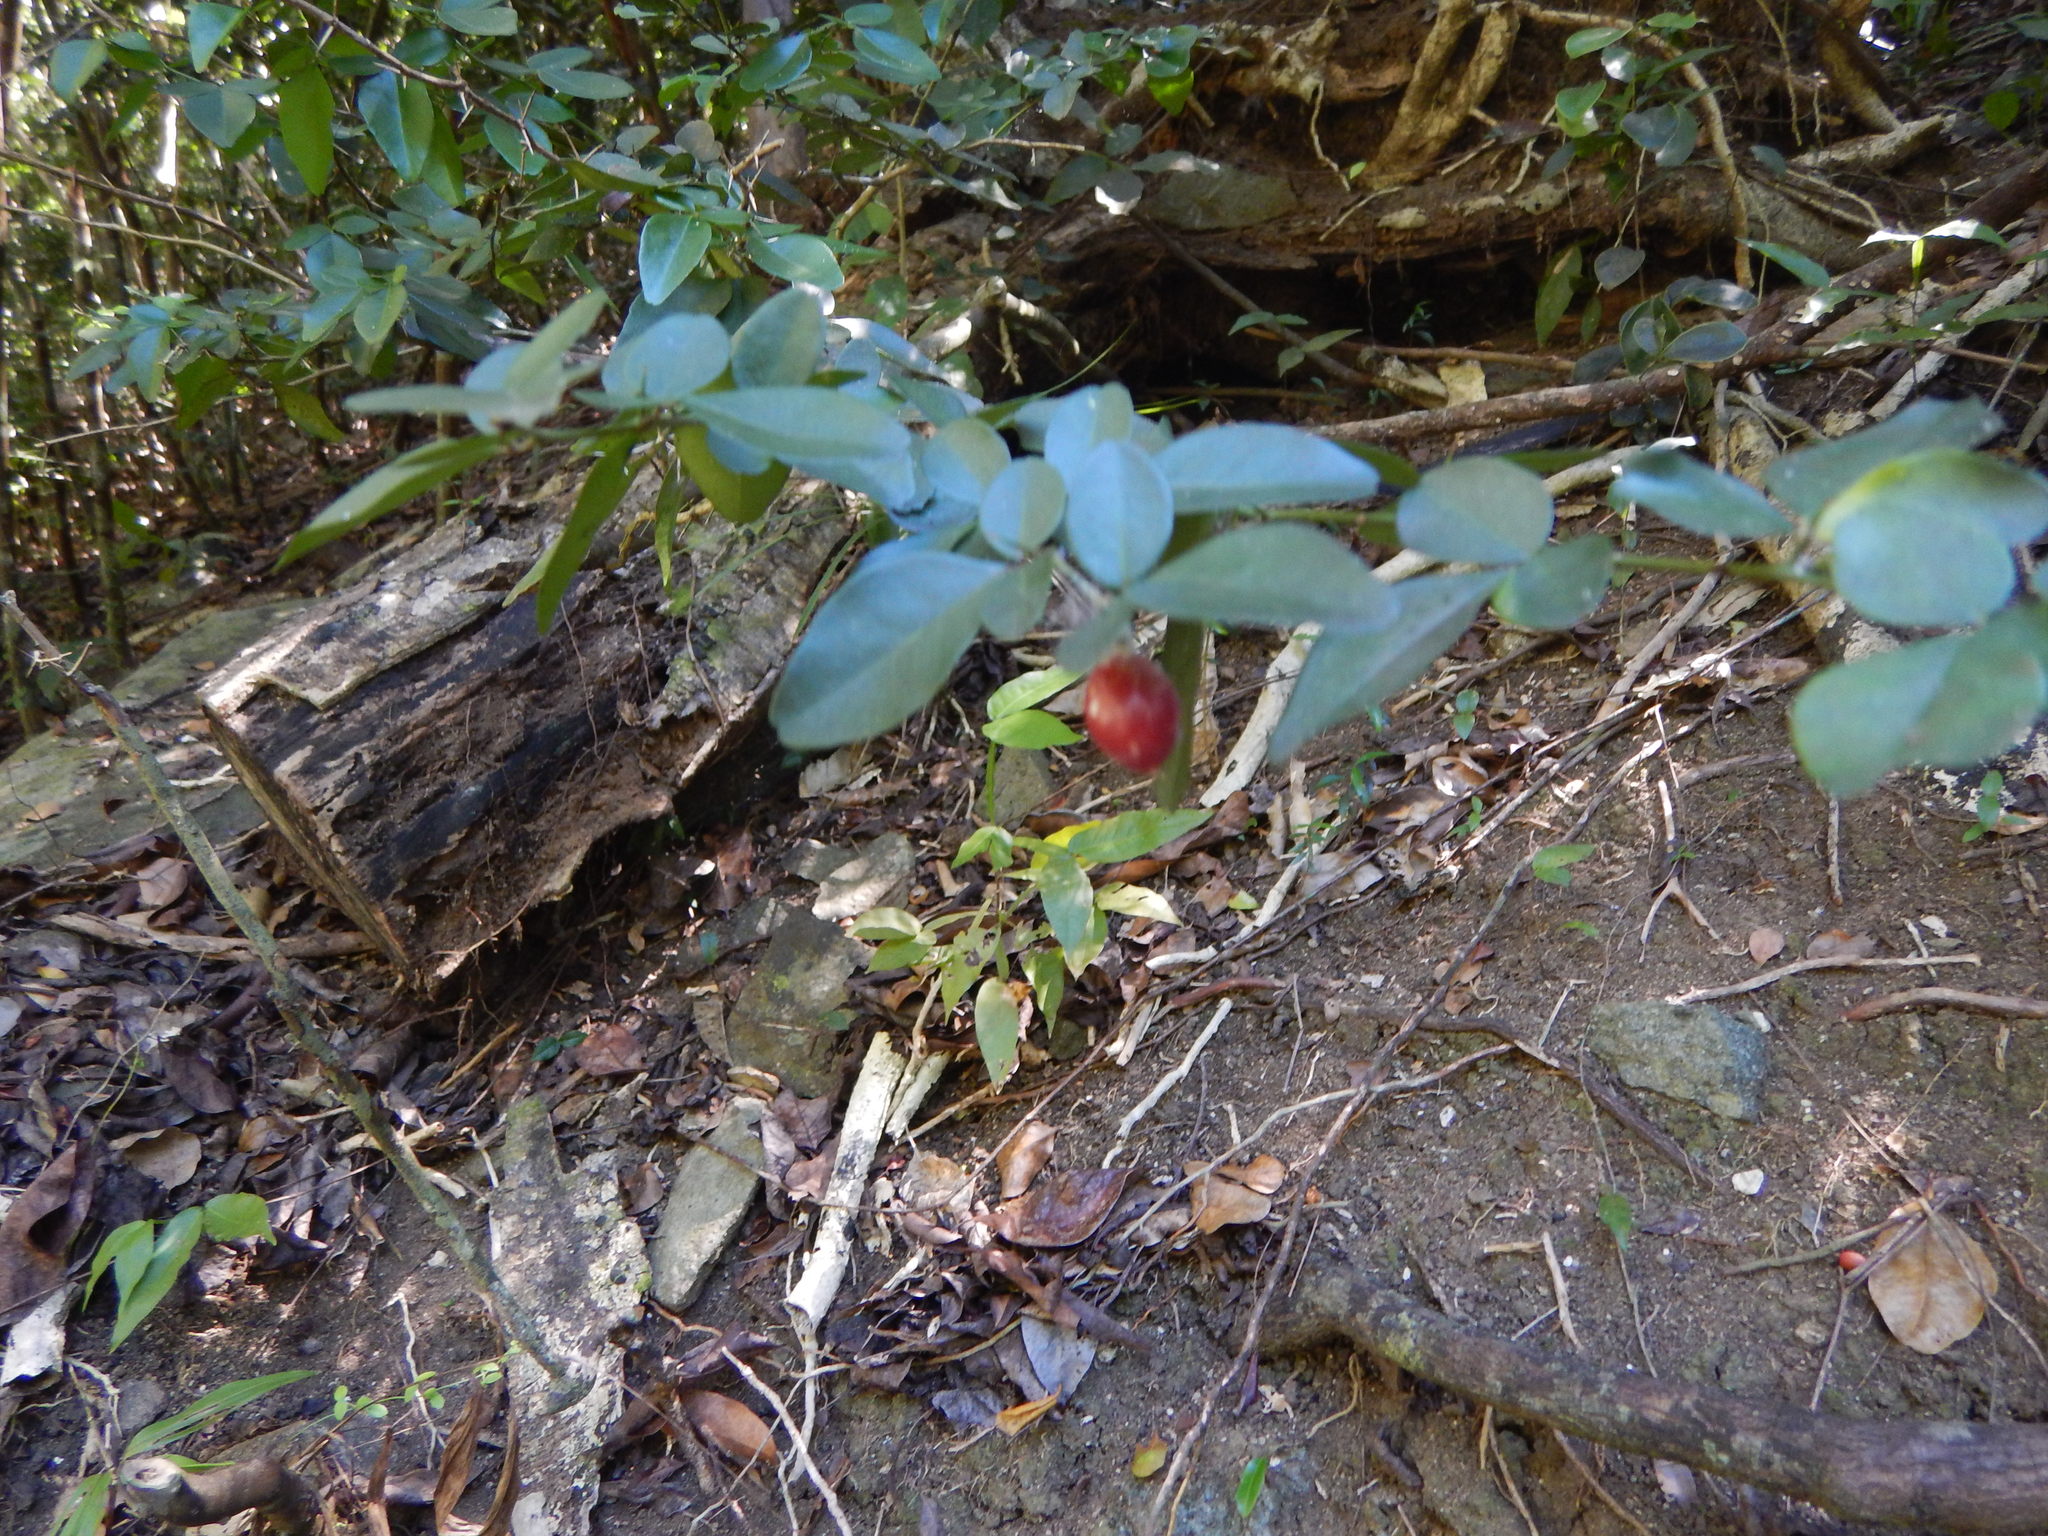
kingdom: Plantae
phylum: Tracheophyta
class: Magnoliopsida
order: Sapindales
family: Rutaceae
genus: Triphasia
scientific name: Triphasia trifolia
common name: Limeberry
